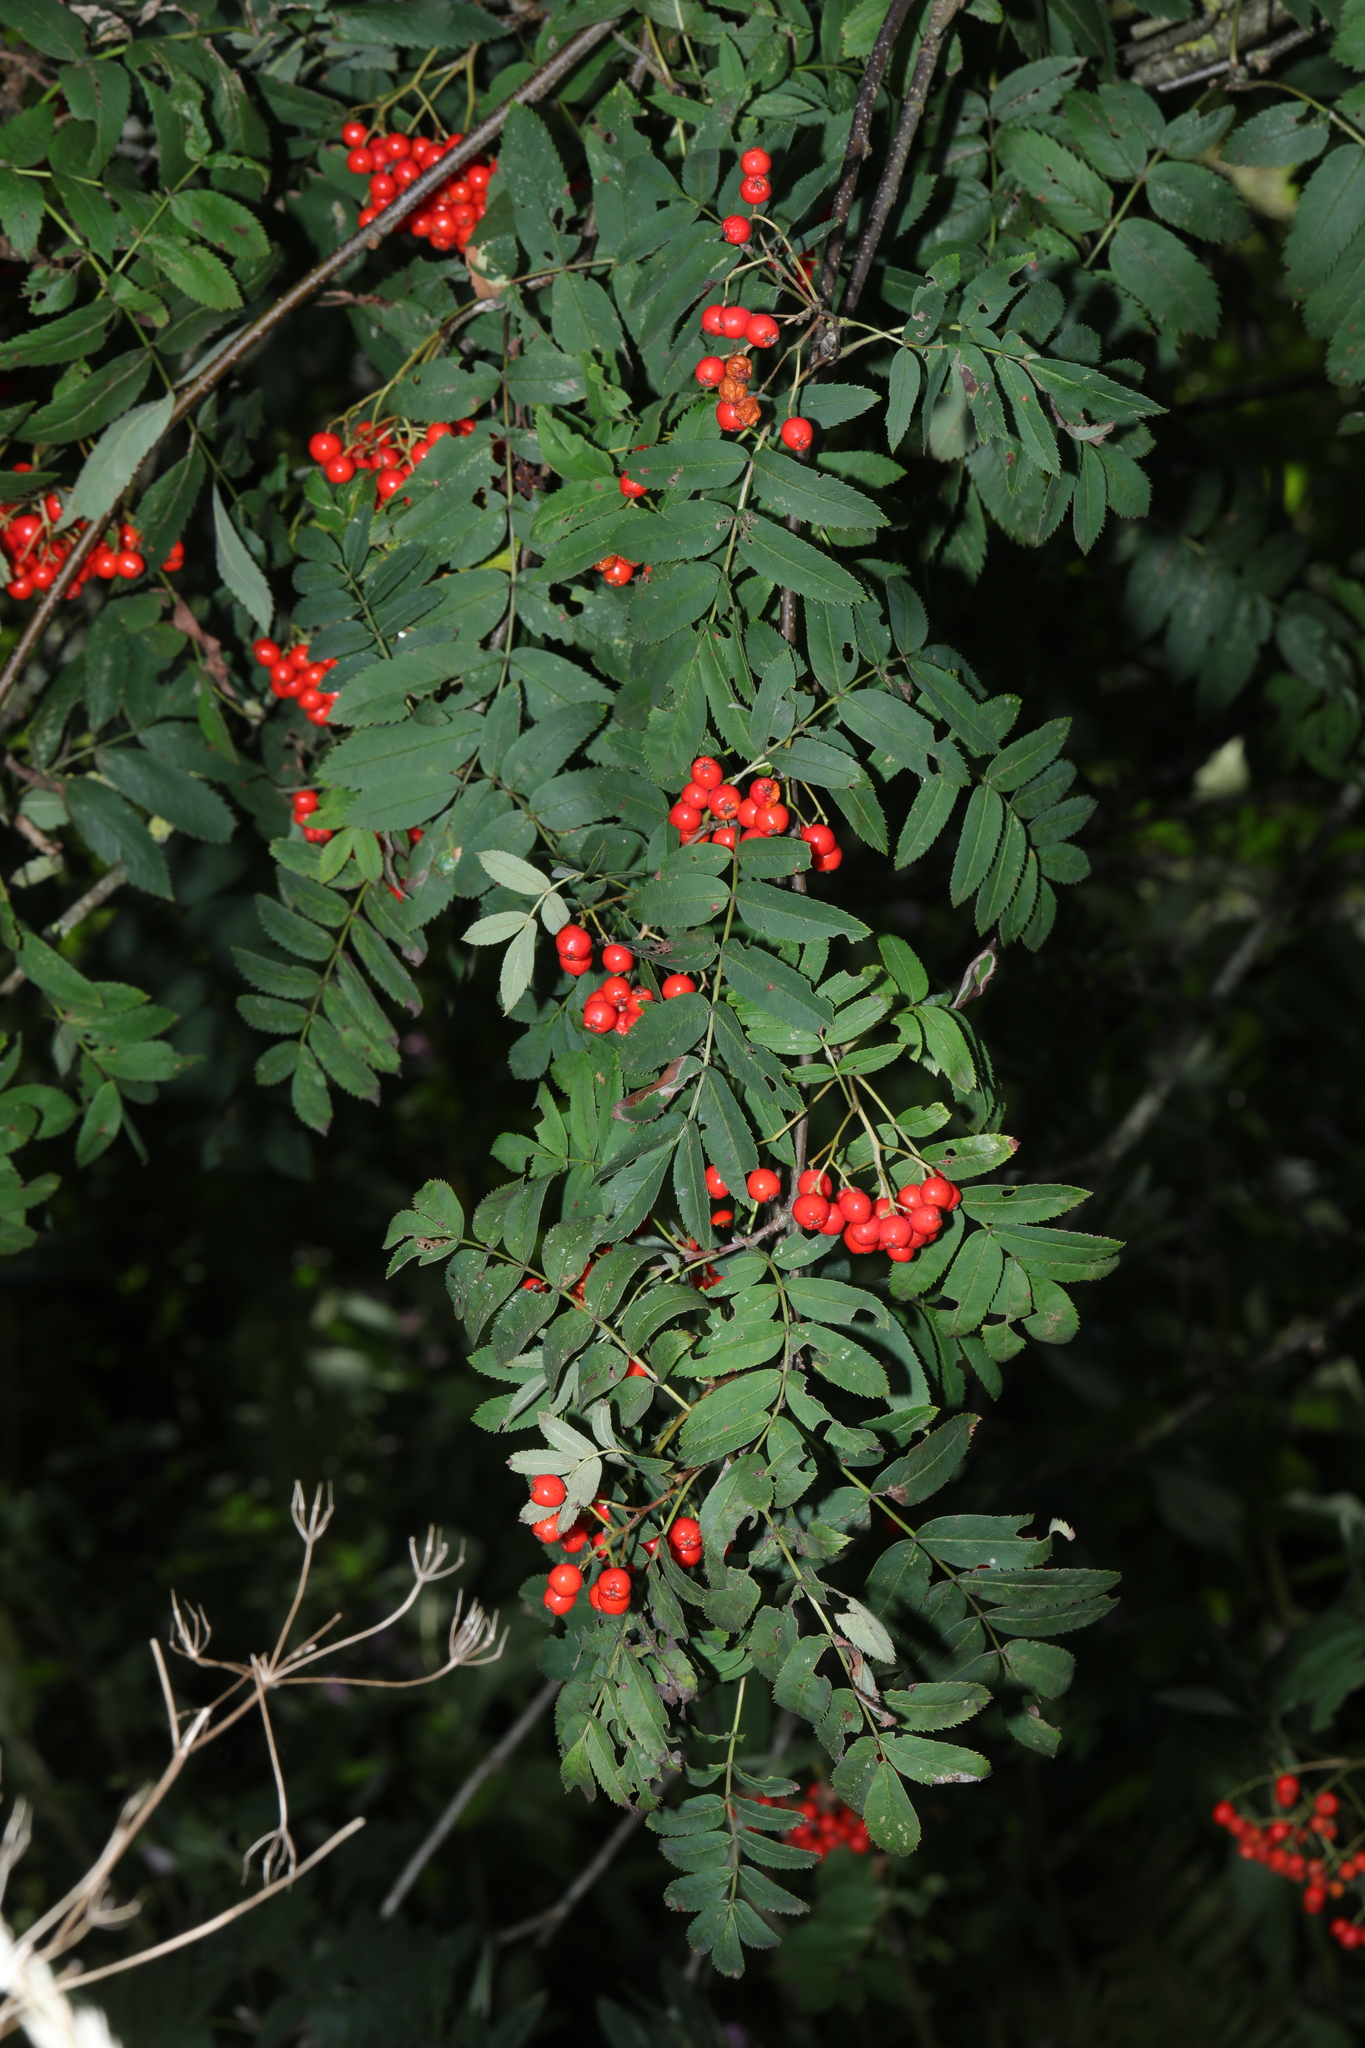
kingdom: Plantae
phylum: Tracheophyta
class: Magnoliopsida
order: Rosales
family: Rosaceae
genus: Sorbus
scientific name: Sorbus aucuparia
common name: Rowan
